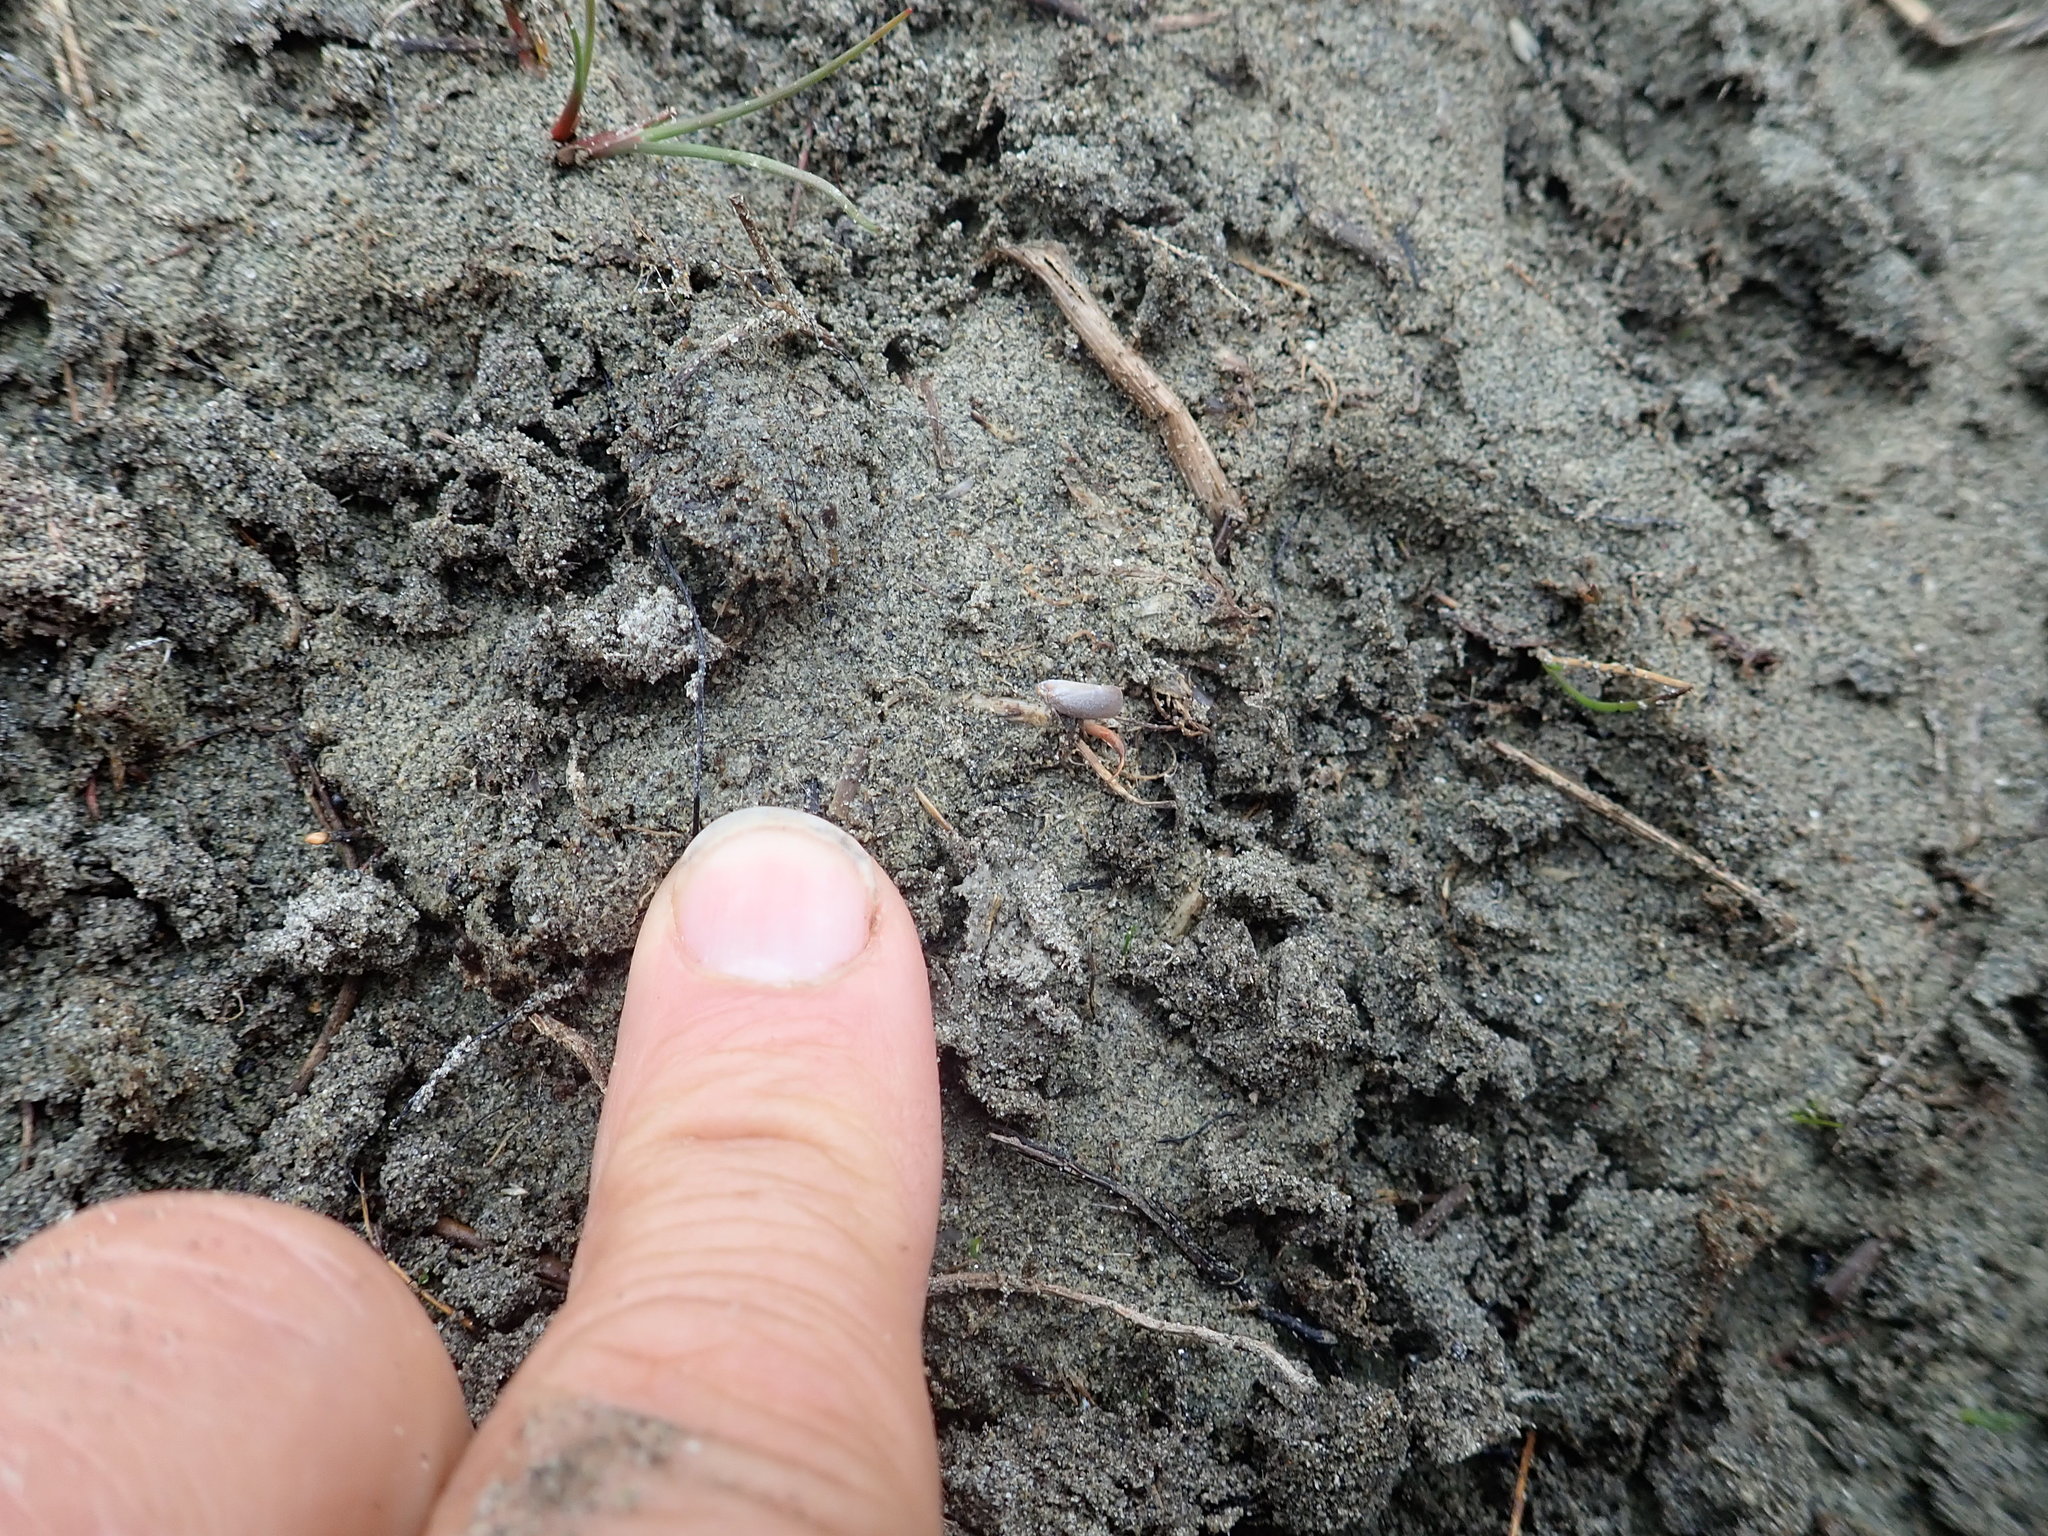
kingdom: Animalia
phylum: Arthropoda
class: Insecta
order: Hemiptera
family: Flatidae
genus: Anzora
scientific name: Anzora unicolor
